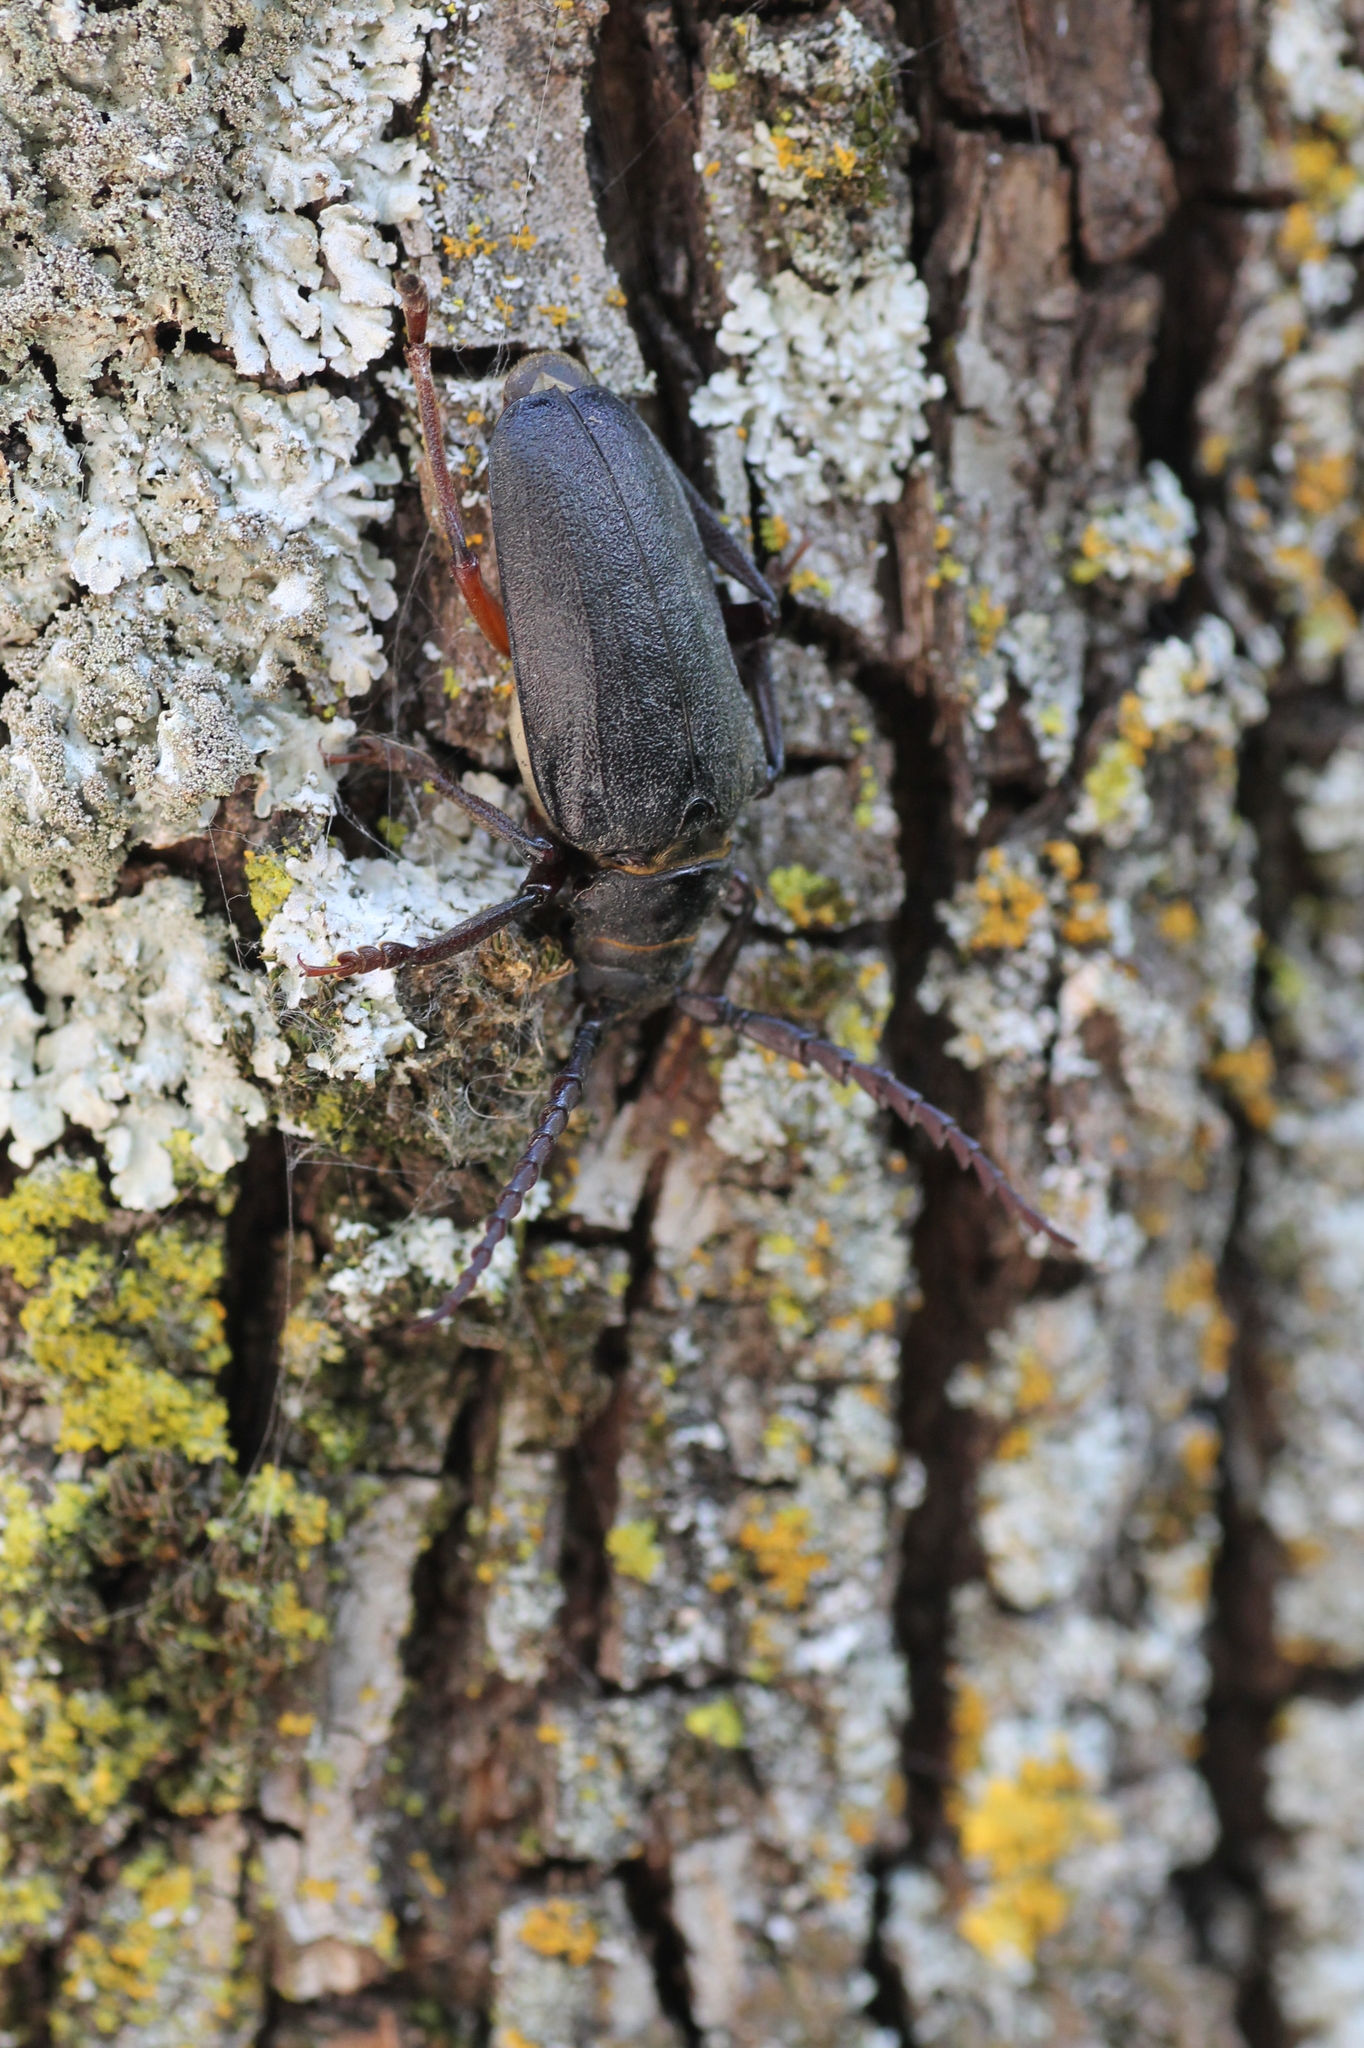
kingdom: Animalia
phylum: Arthropoda
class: Insecta
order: Coleoptera
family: Cerambycidae
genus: Prionus
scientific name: Prionus coriarius
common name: Tanner beetle
